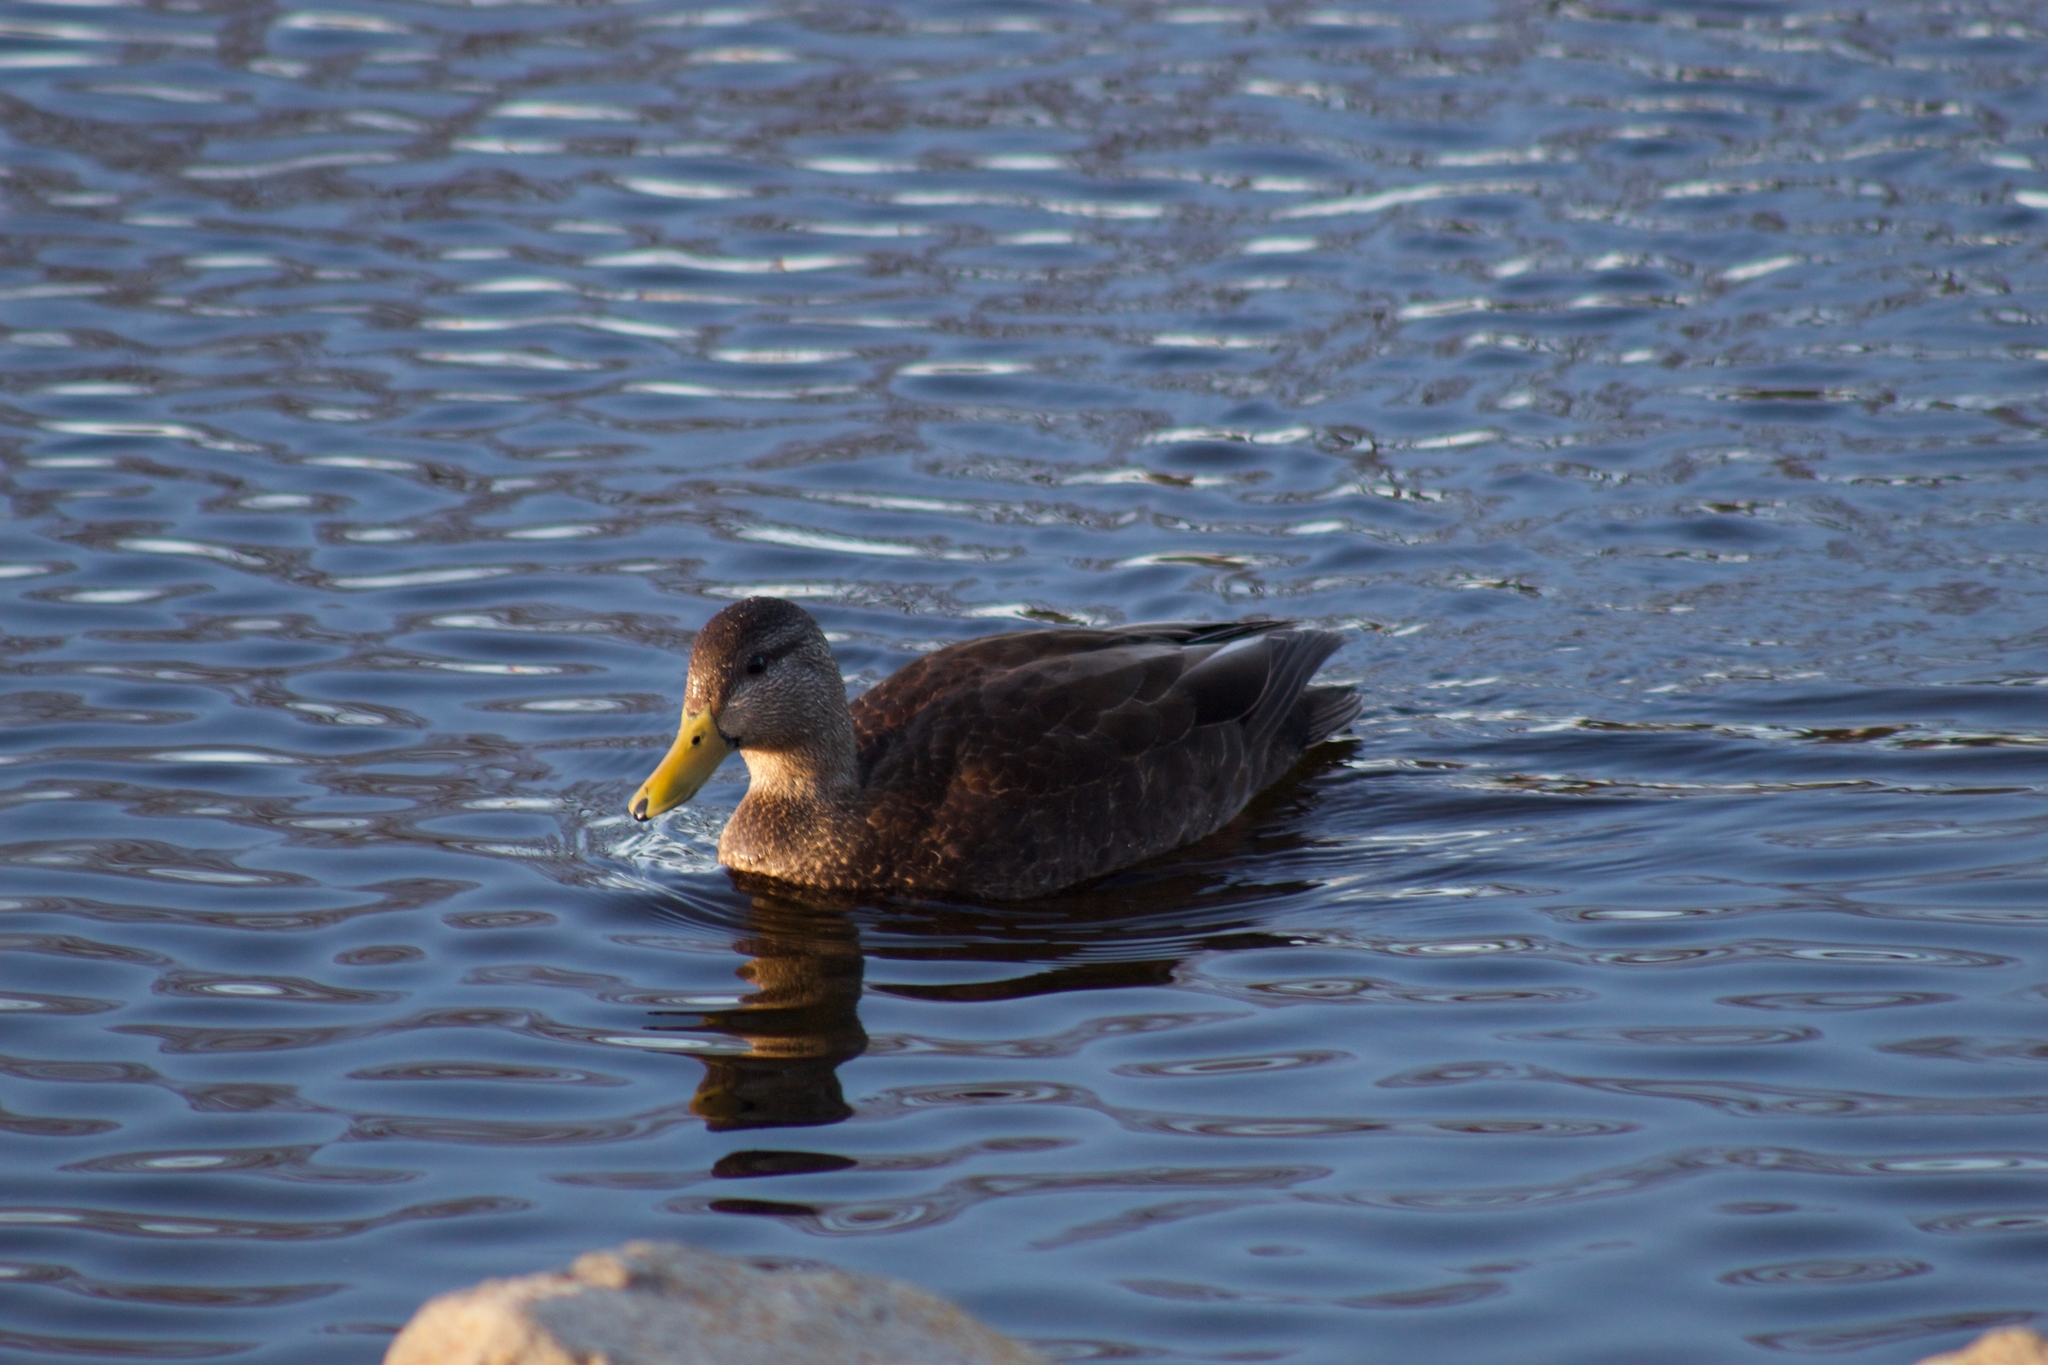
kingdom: Animalia
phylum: Chordata
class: Aves
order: Anseriformes
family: Anatidae
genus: Anas
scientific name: Anas rubripes
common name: American black duck
